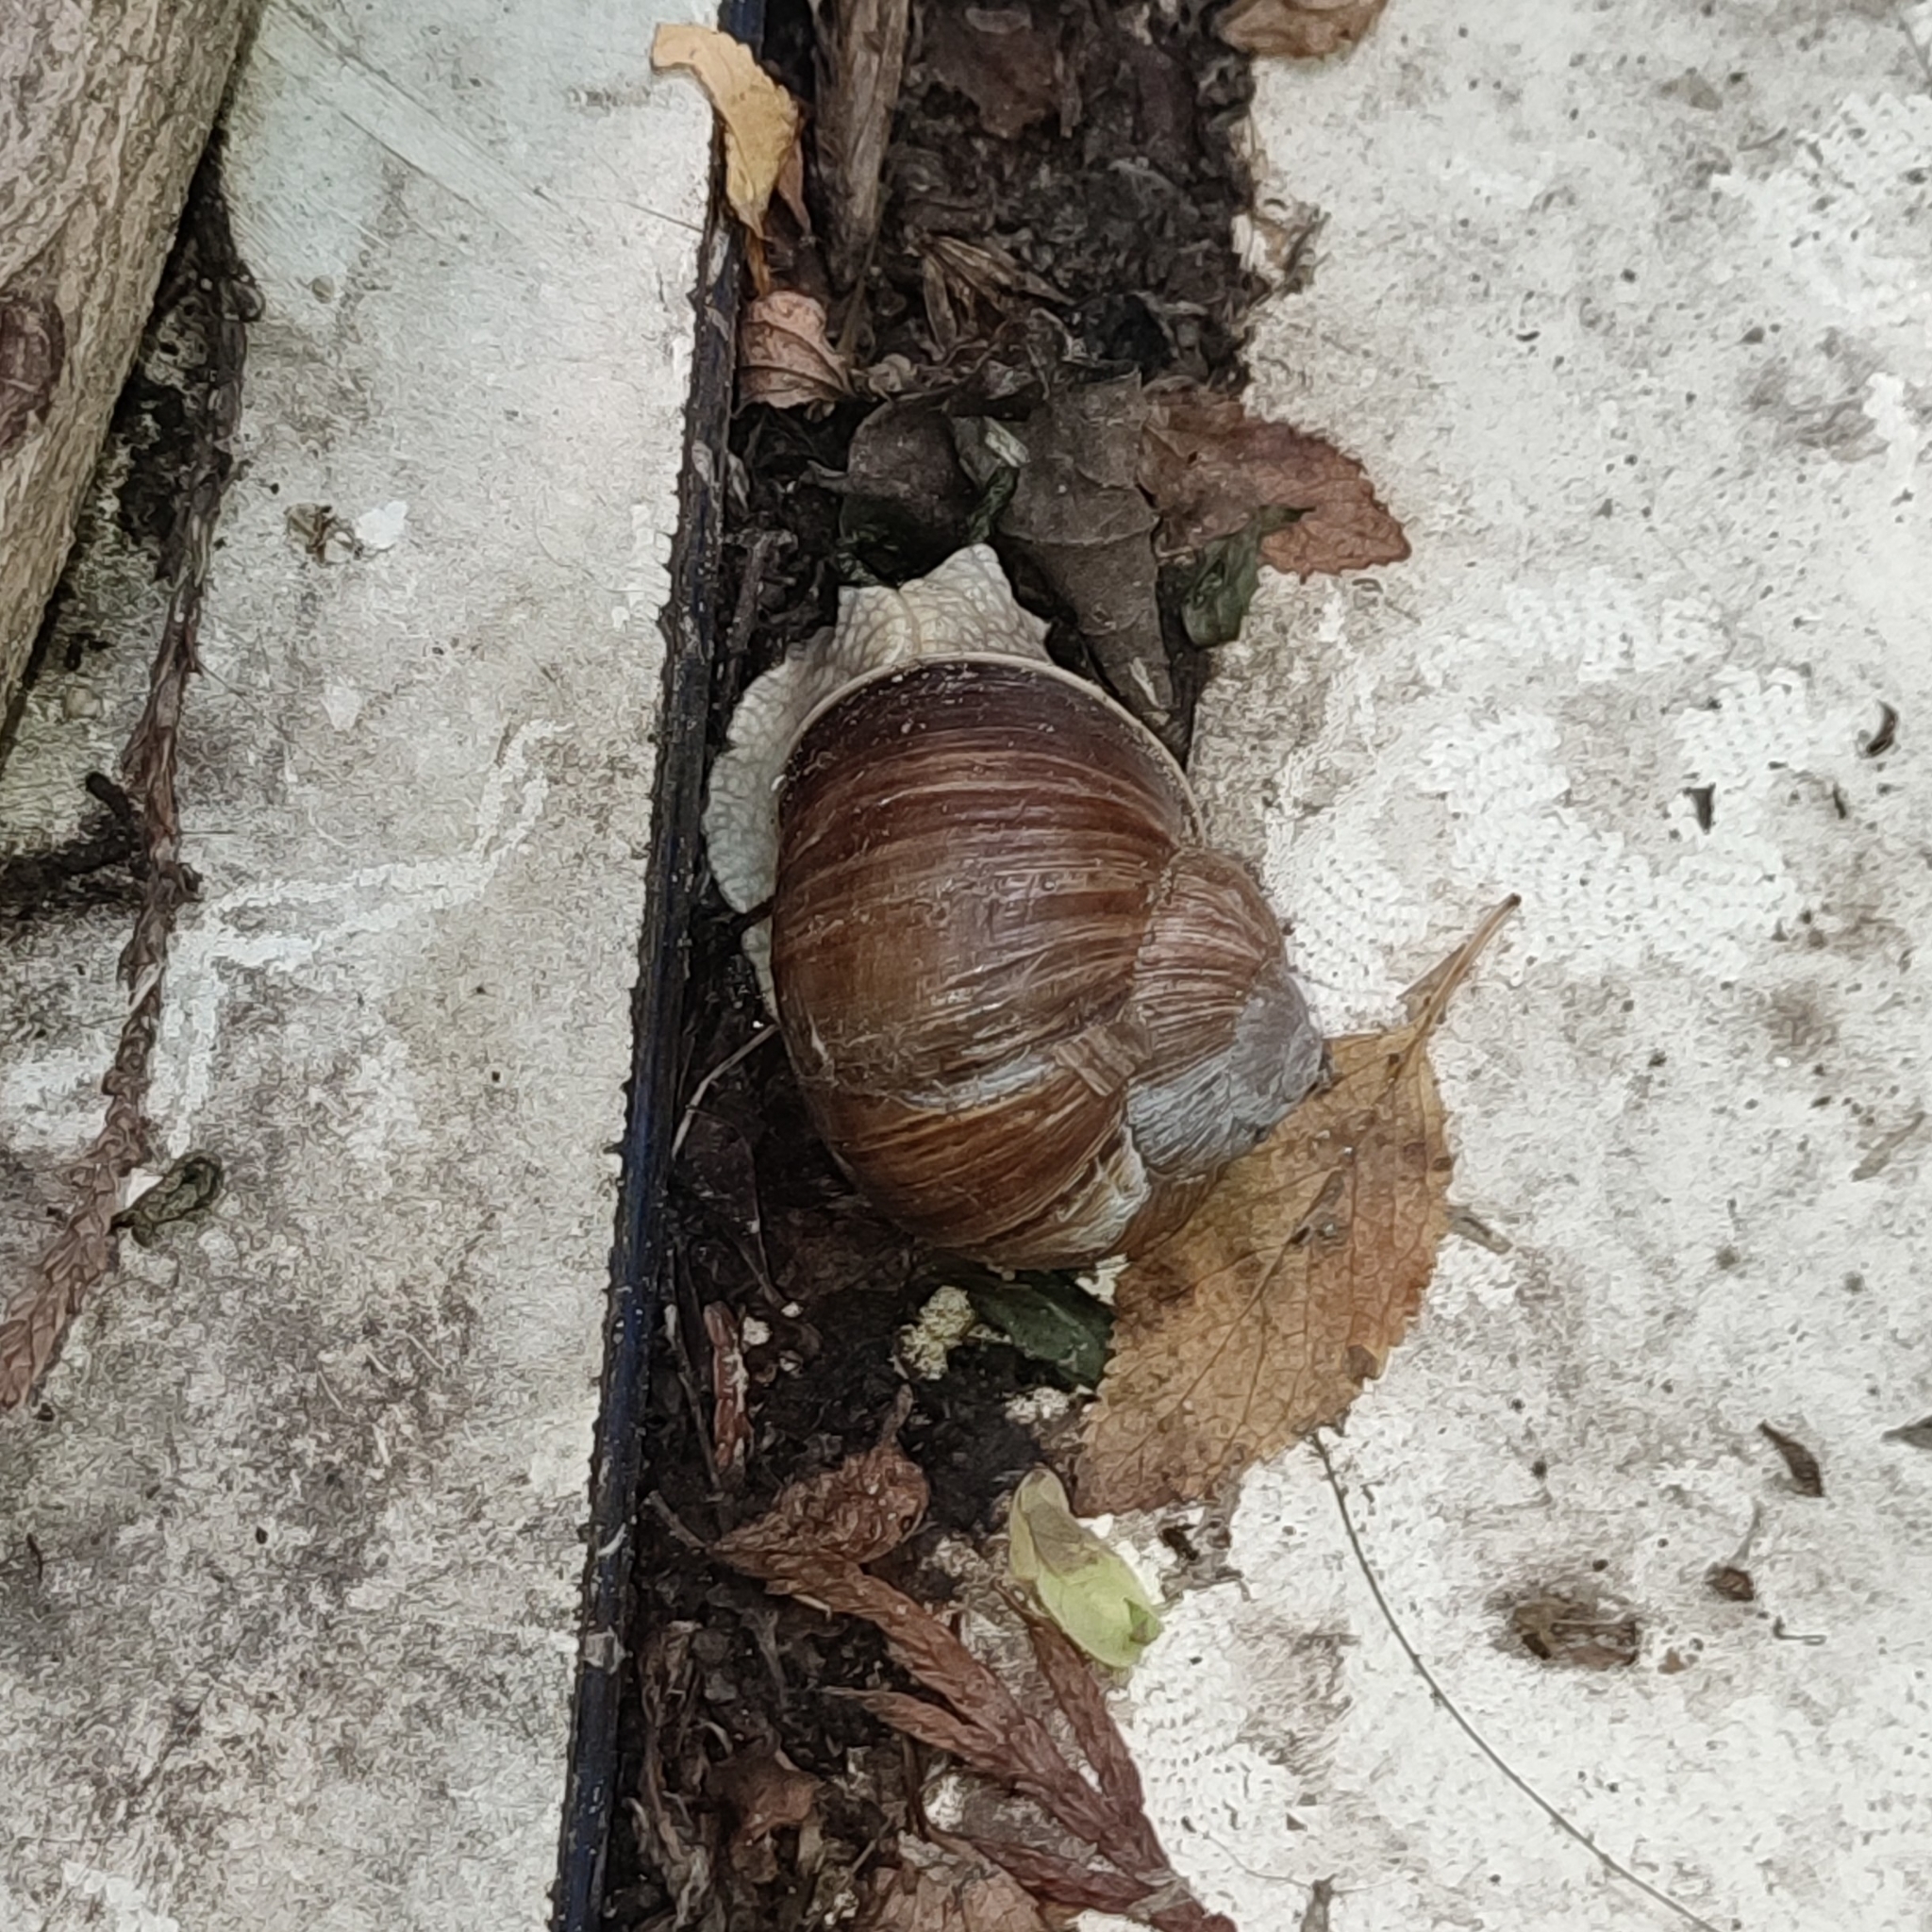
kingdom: Animalia
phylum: Mollusca
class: Gastropoda
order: Stylommatophora
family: Helicidae
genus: Helix
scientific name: Helix pomatia
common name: Roman snail
